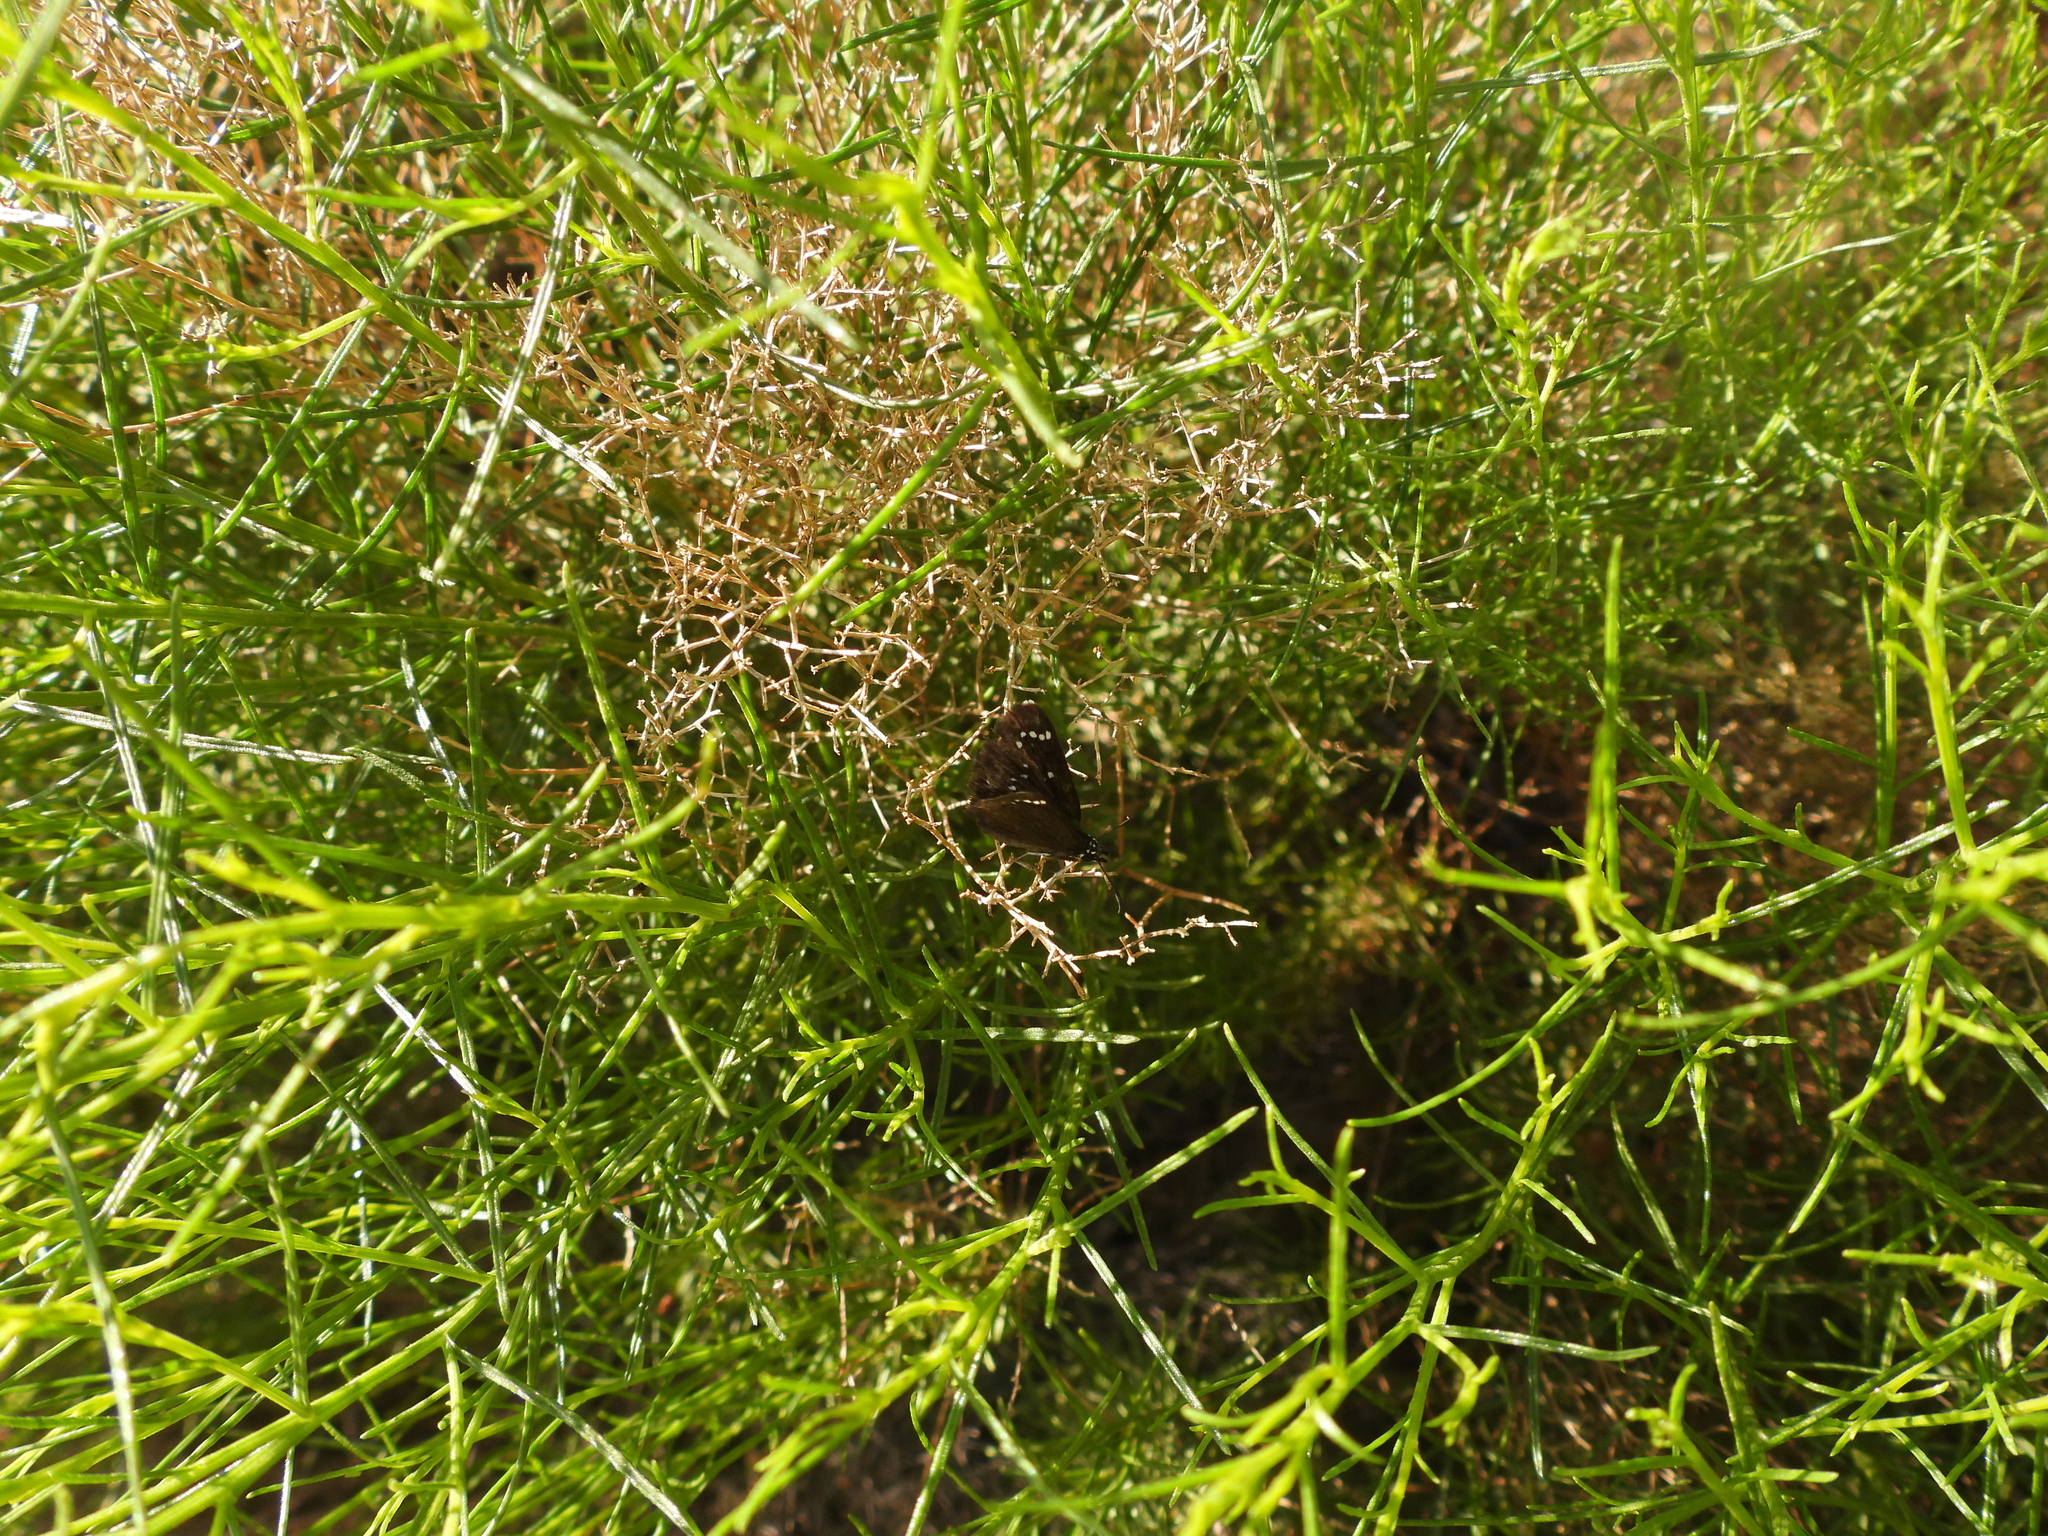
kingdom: Animalia
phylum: Arthropoda
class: Insecta
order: Lepidoptera
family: Hesperiidae
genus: Pholisora
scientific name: Pholisora catullus
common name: Common sootywing
